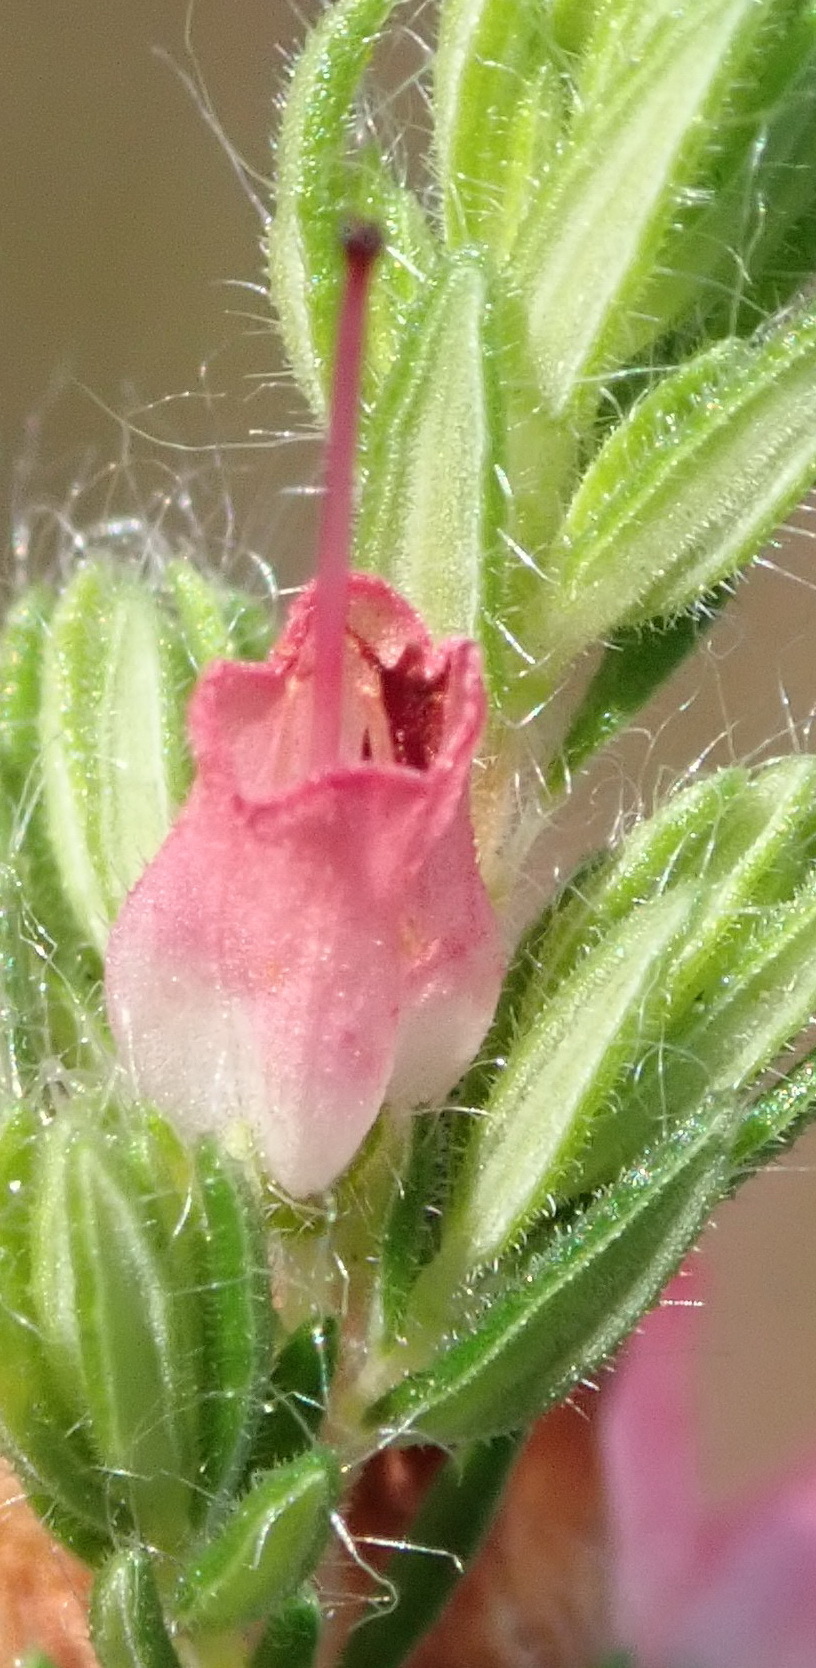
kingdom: Plantae
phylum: Tracheophyta
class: Magnoliopsida
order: Ericales
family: Ericaceae
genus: Erica
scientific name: Erica longimontana
